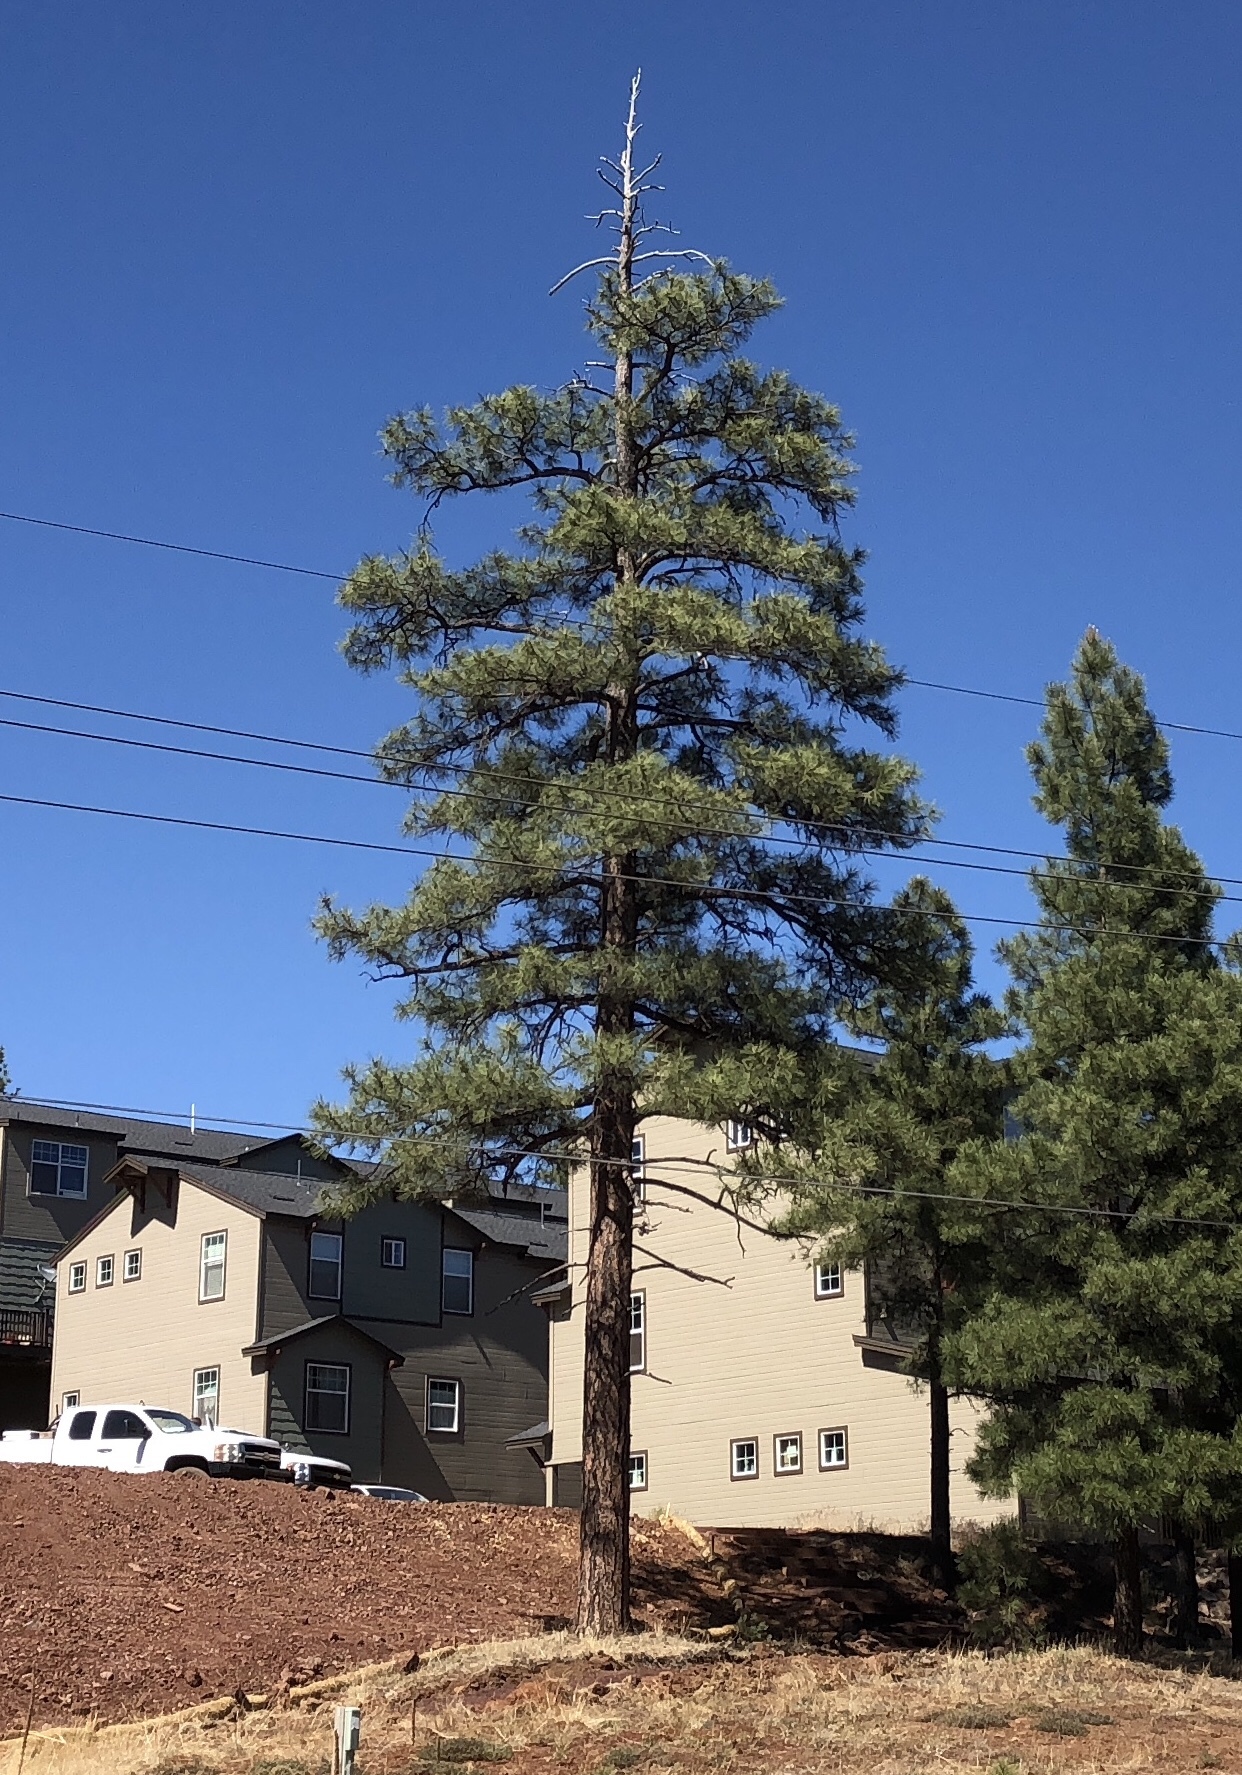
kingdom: Plantae
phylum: Tracheophyta
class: Pinopsida
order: Pinales
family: Pinaceae
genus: Pinus
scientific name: Pinus ponderosa
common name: Western yellow-pine
